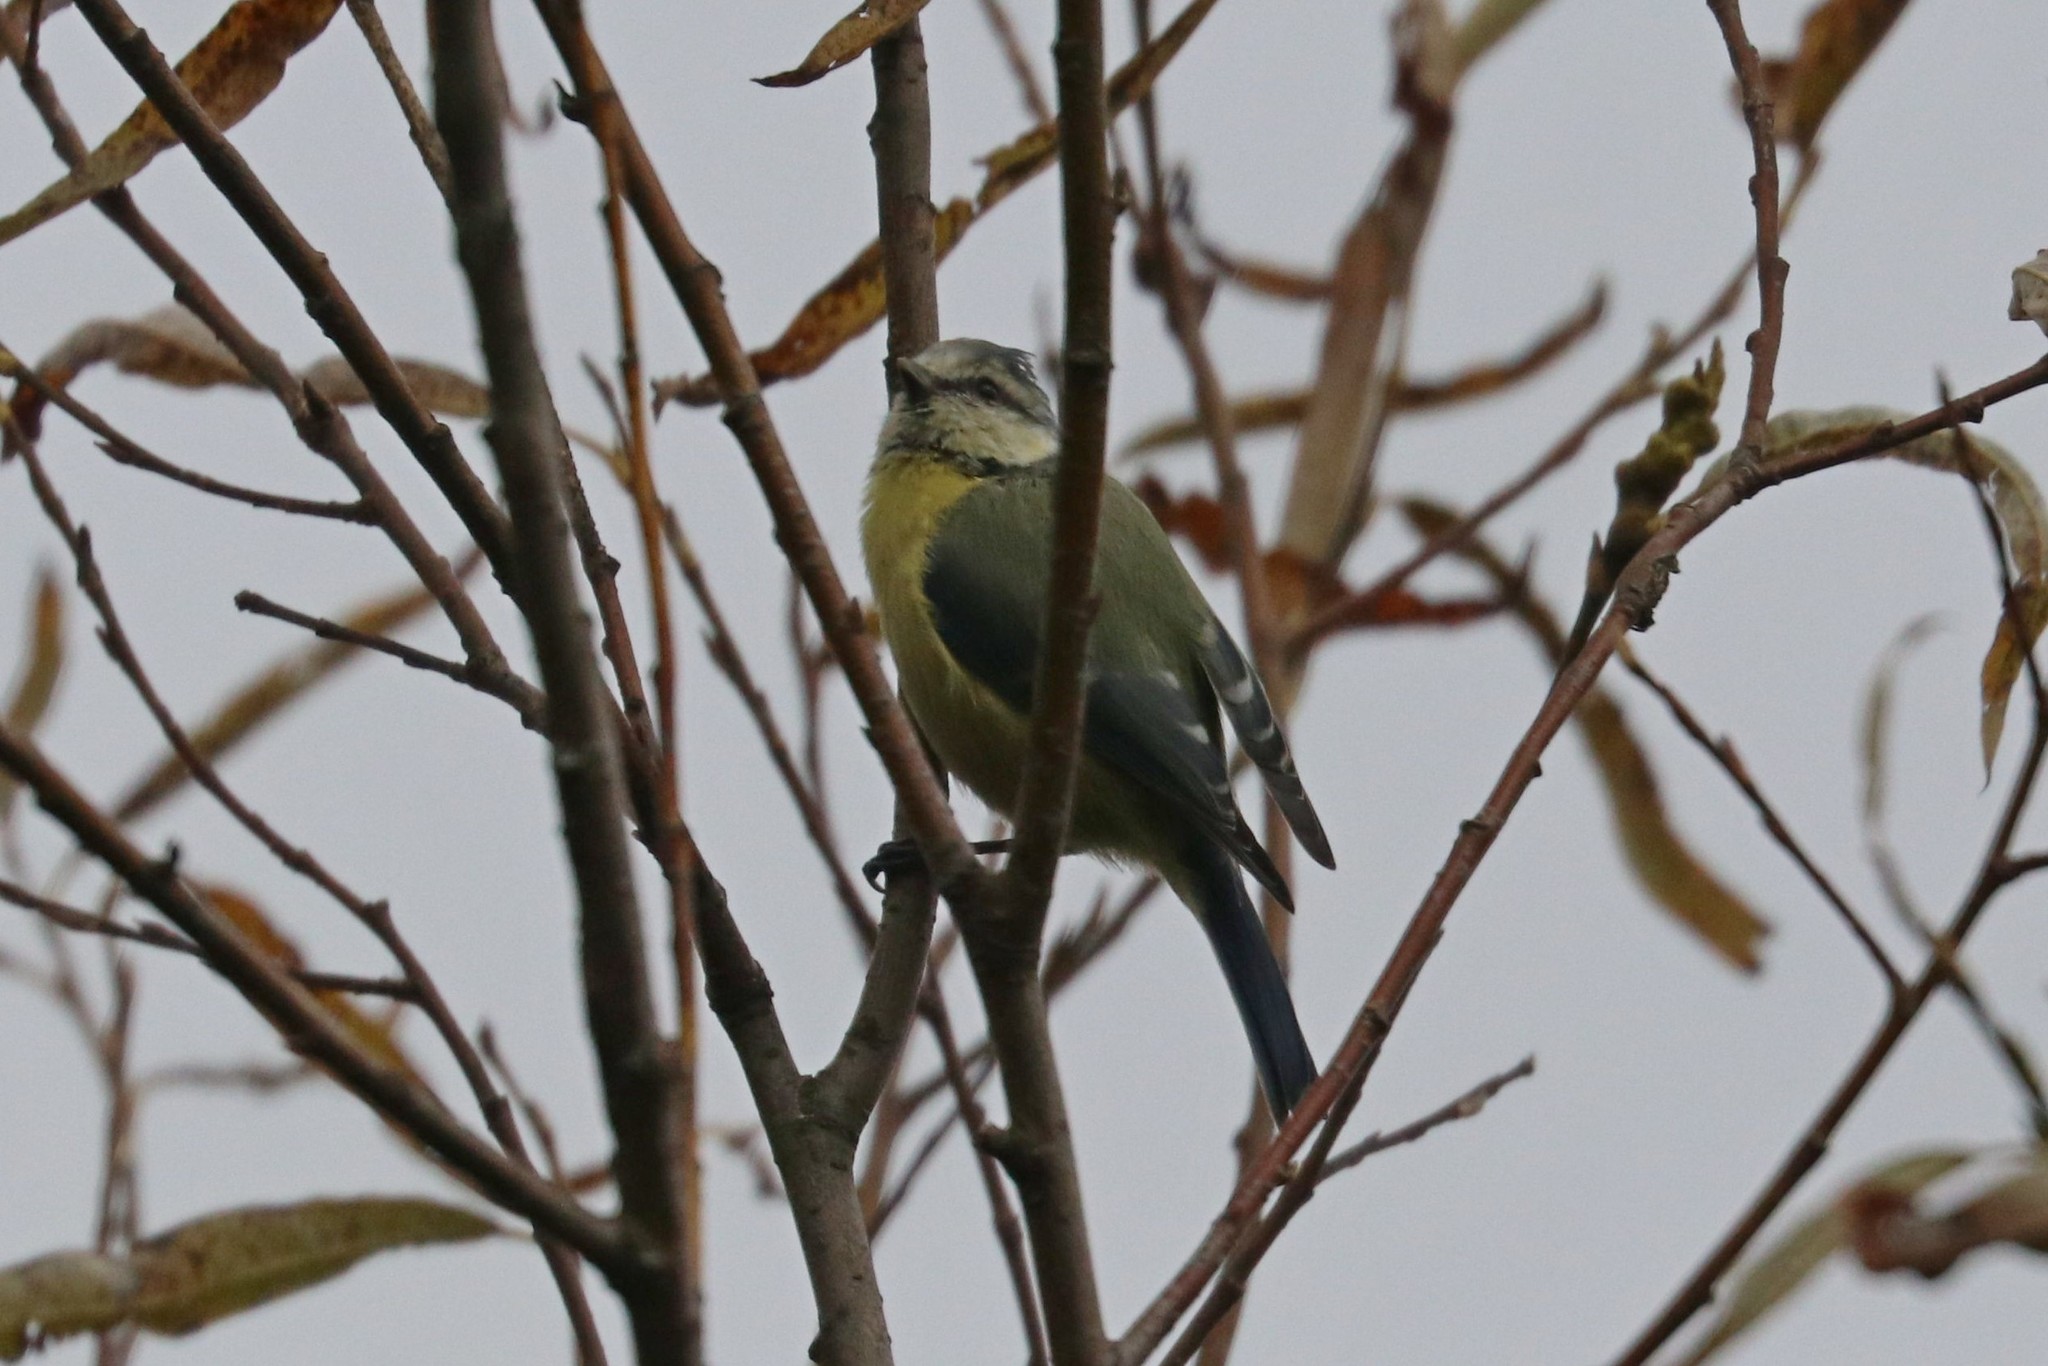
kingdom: Animalia
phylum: Chordata
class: Aves
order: Passeriformes
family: Paridae
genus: Cyanistes
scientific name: Cyanistes caeruleus
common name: Eurasian blue tit
